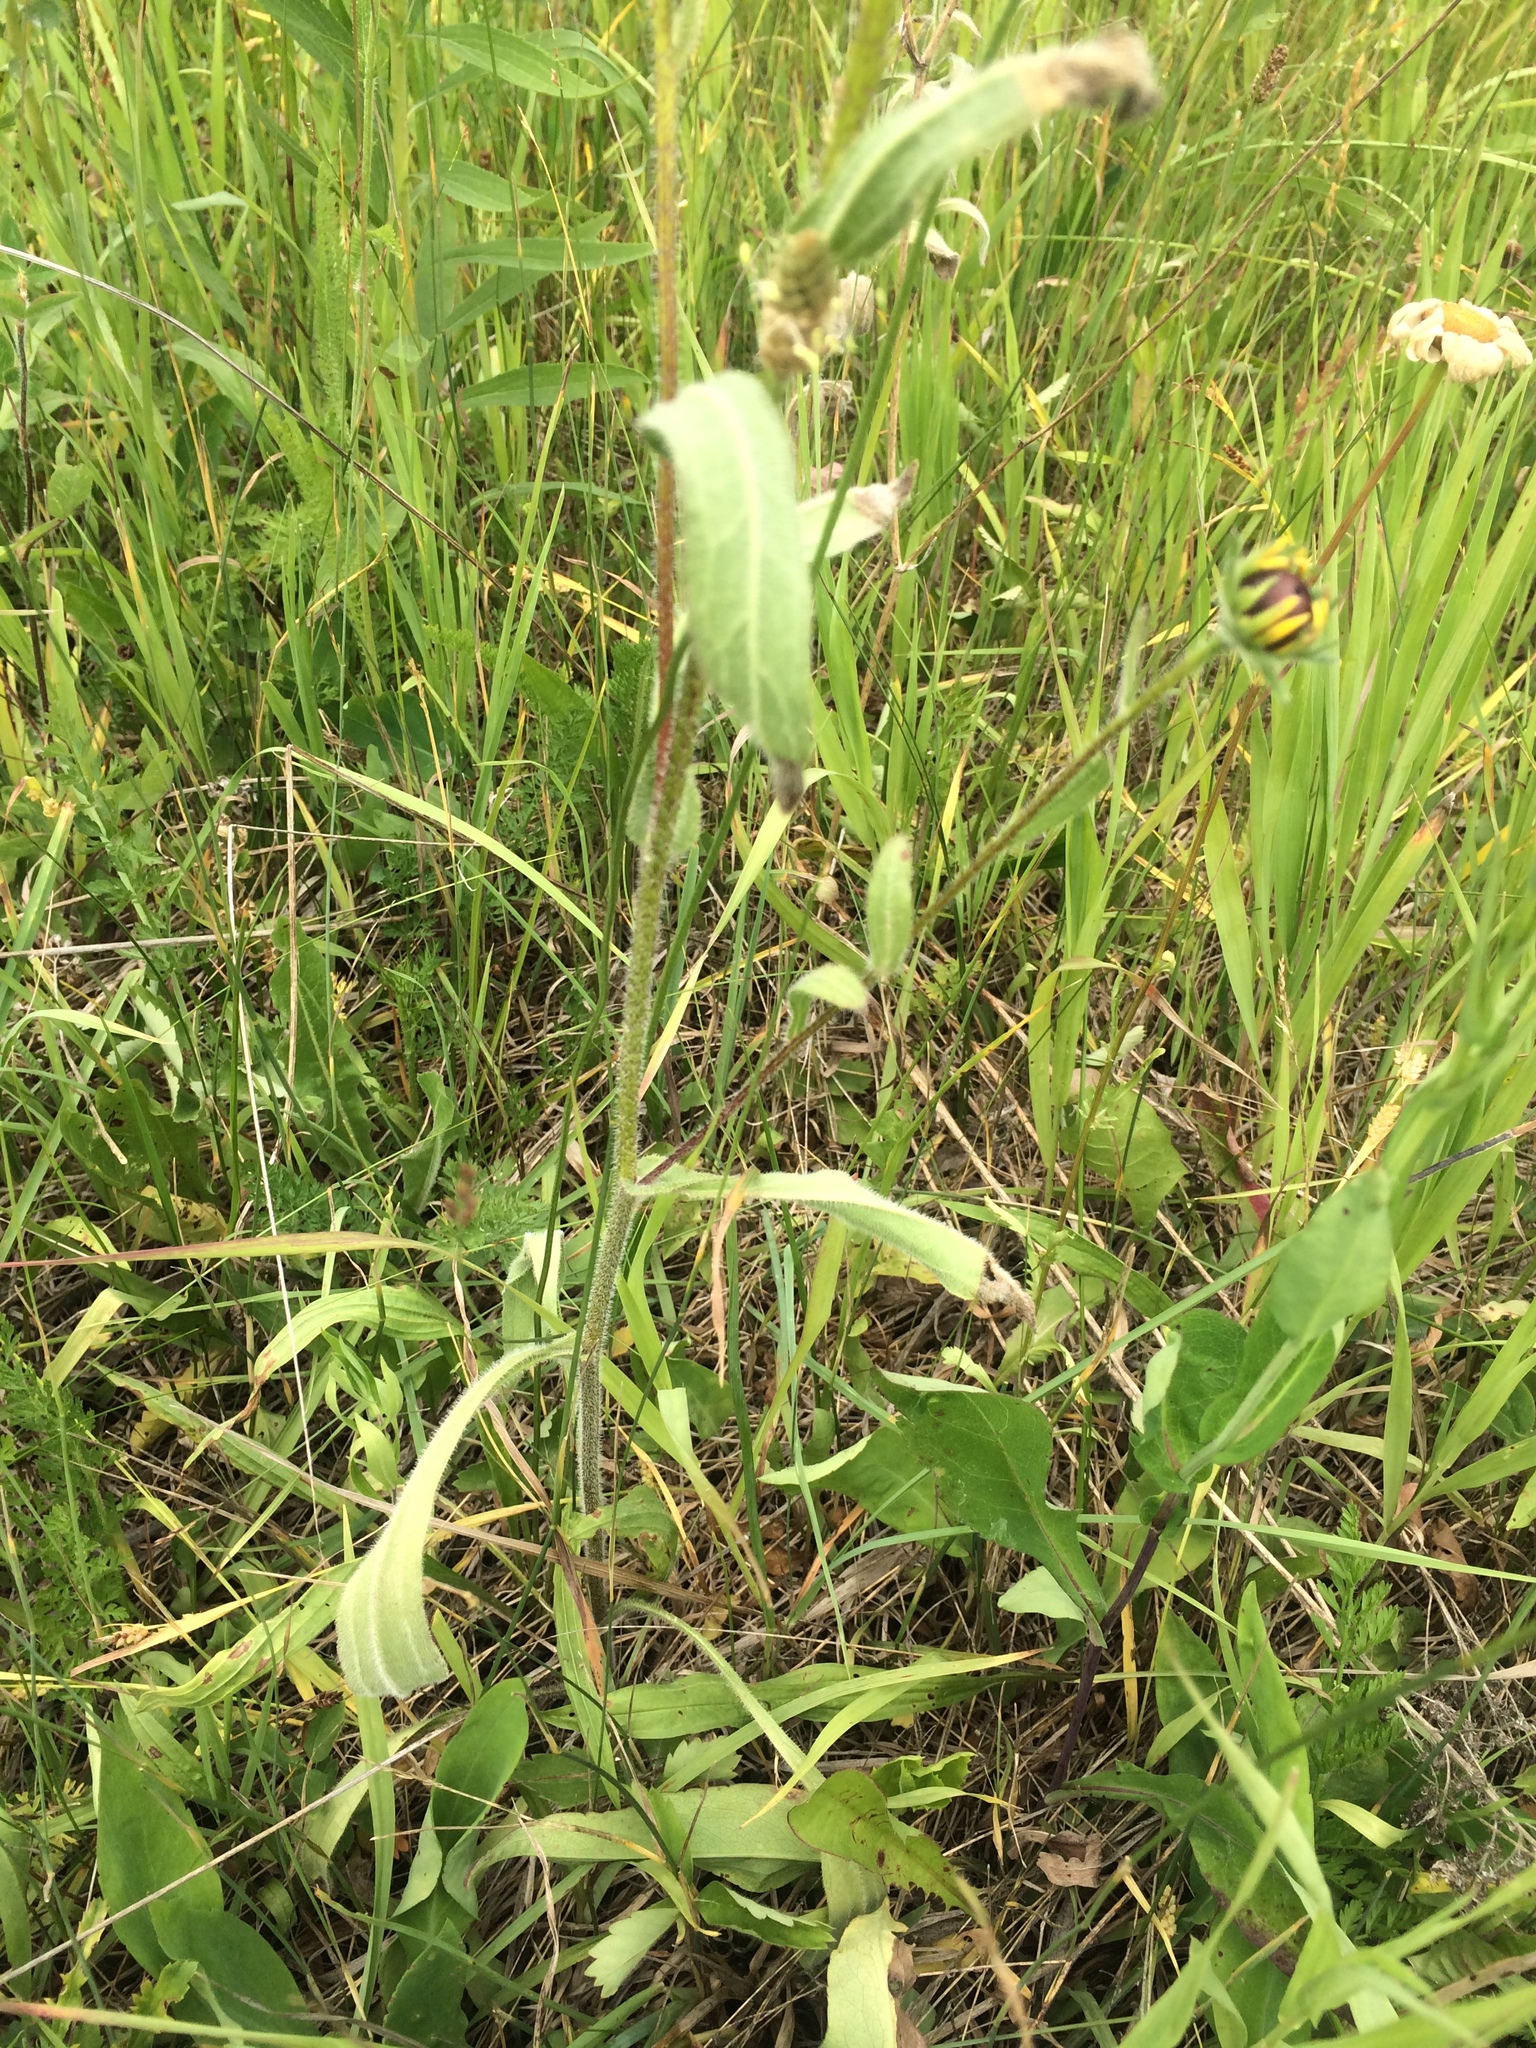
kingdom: Plantae
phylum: Tracheophyta
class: Magnoliopsida
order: Asterales
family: Asteraceae
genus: Rudbeckia
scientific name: Rudbeckia hirta
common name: Black-eyed-susan
